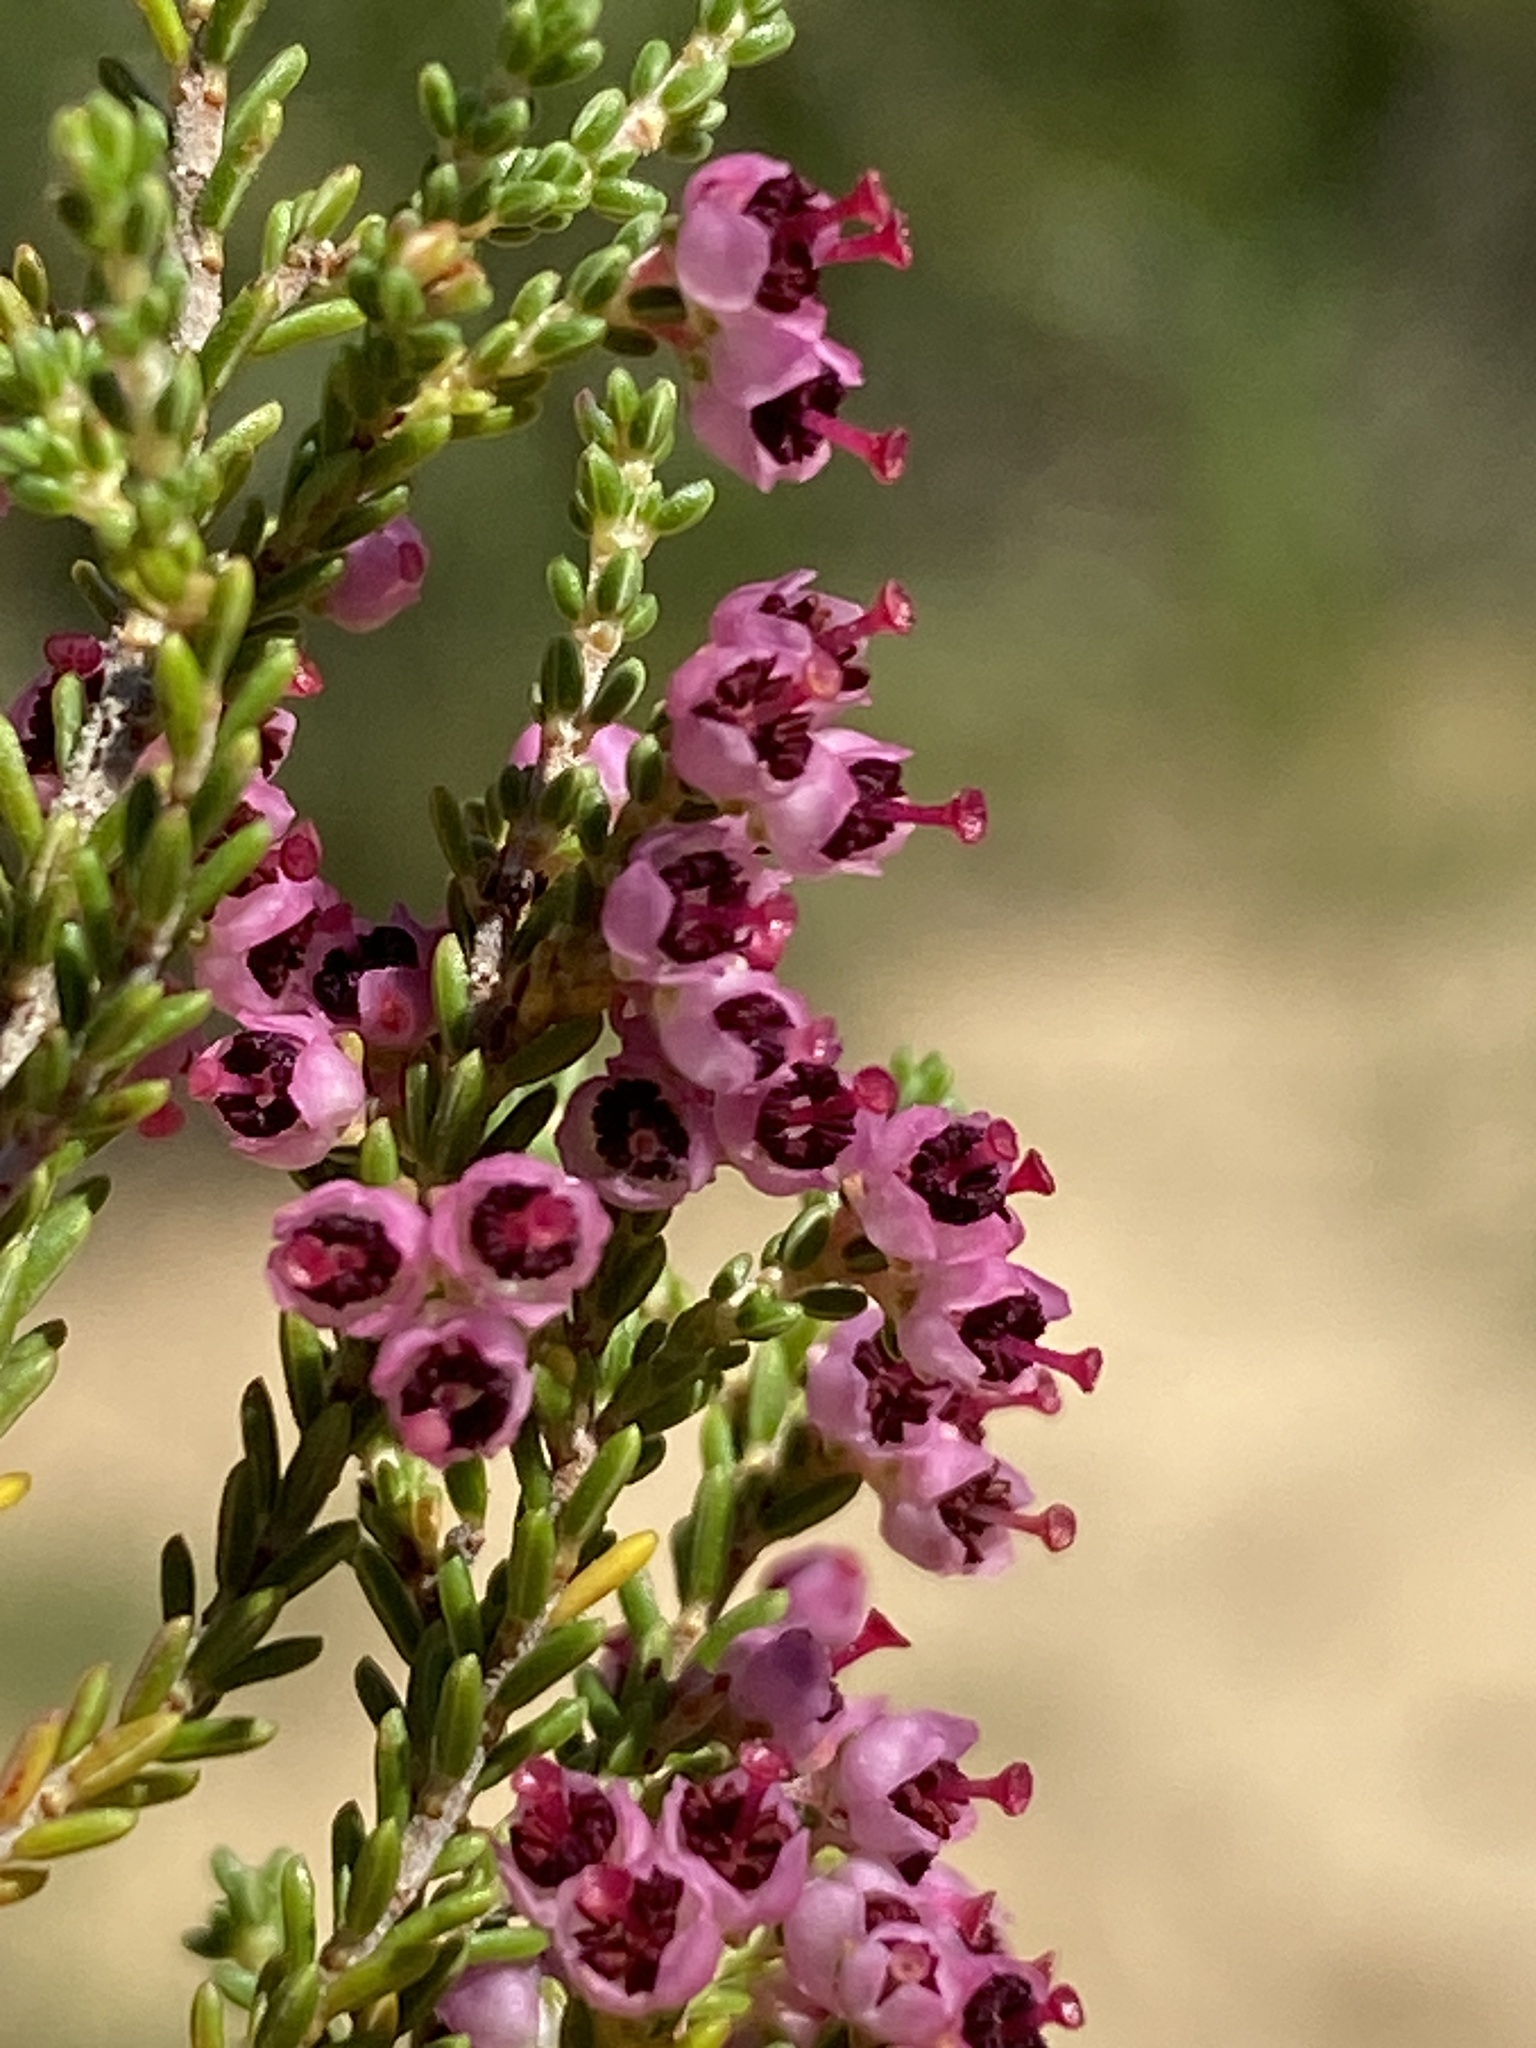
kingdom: Plantae
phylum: Tracheophyta
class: Magnoliopsida
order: Ericales
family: Ericaceae
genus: Erica
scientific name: Erica peltata
